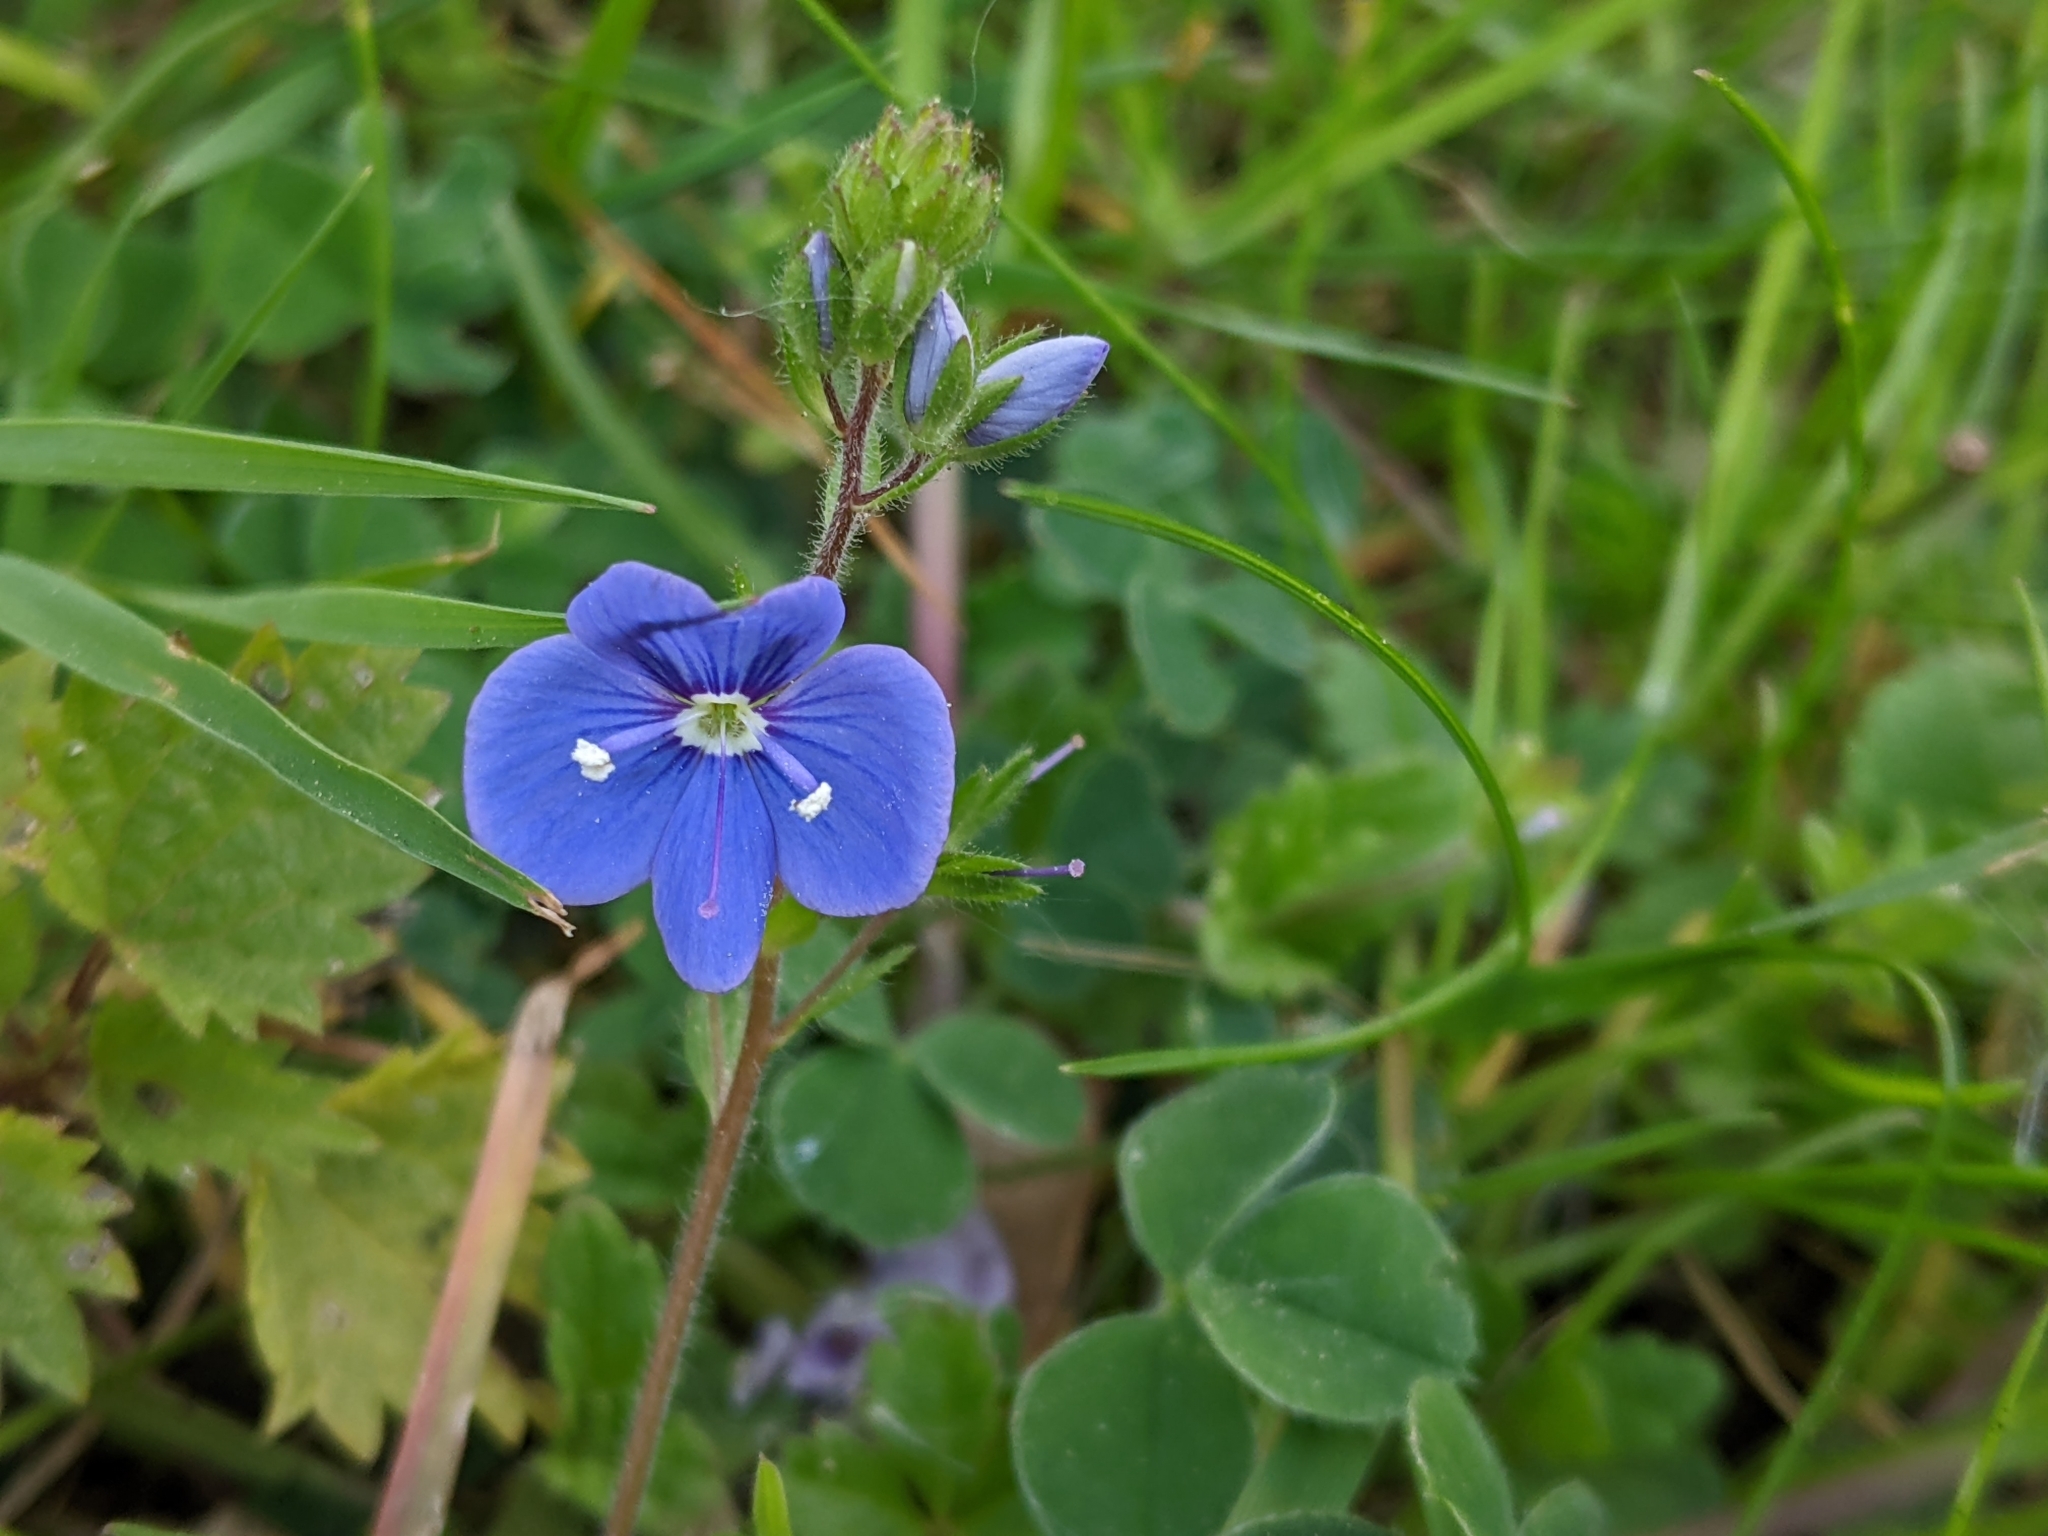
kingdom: Plantae
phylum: Tracheophyta
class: Magnoliopsida
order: Lamiales
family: Plantaginaceae
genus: Veronica
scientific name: Veronica chamaedrys
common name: Germander speedwell
